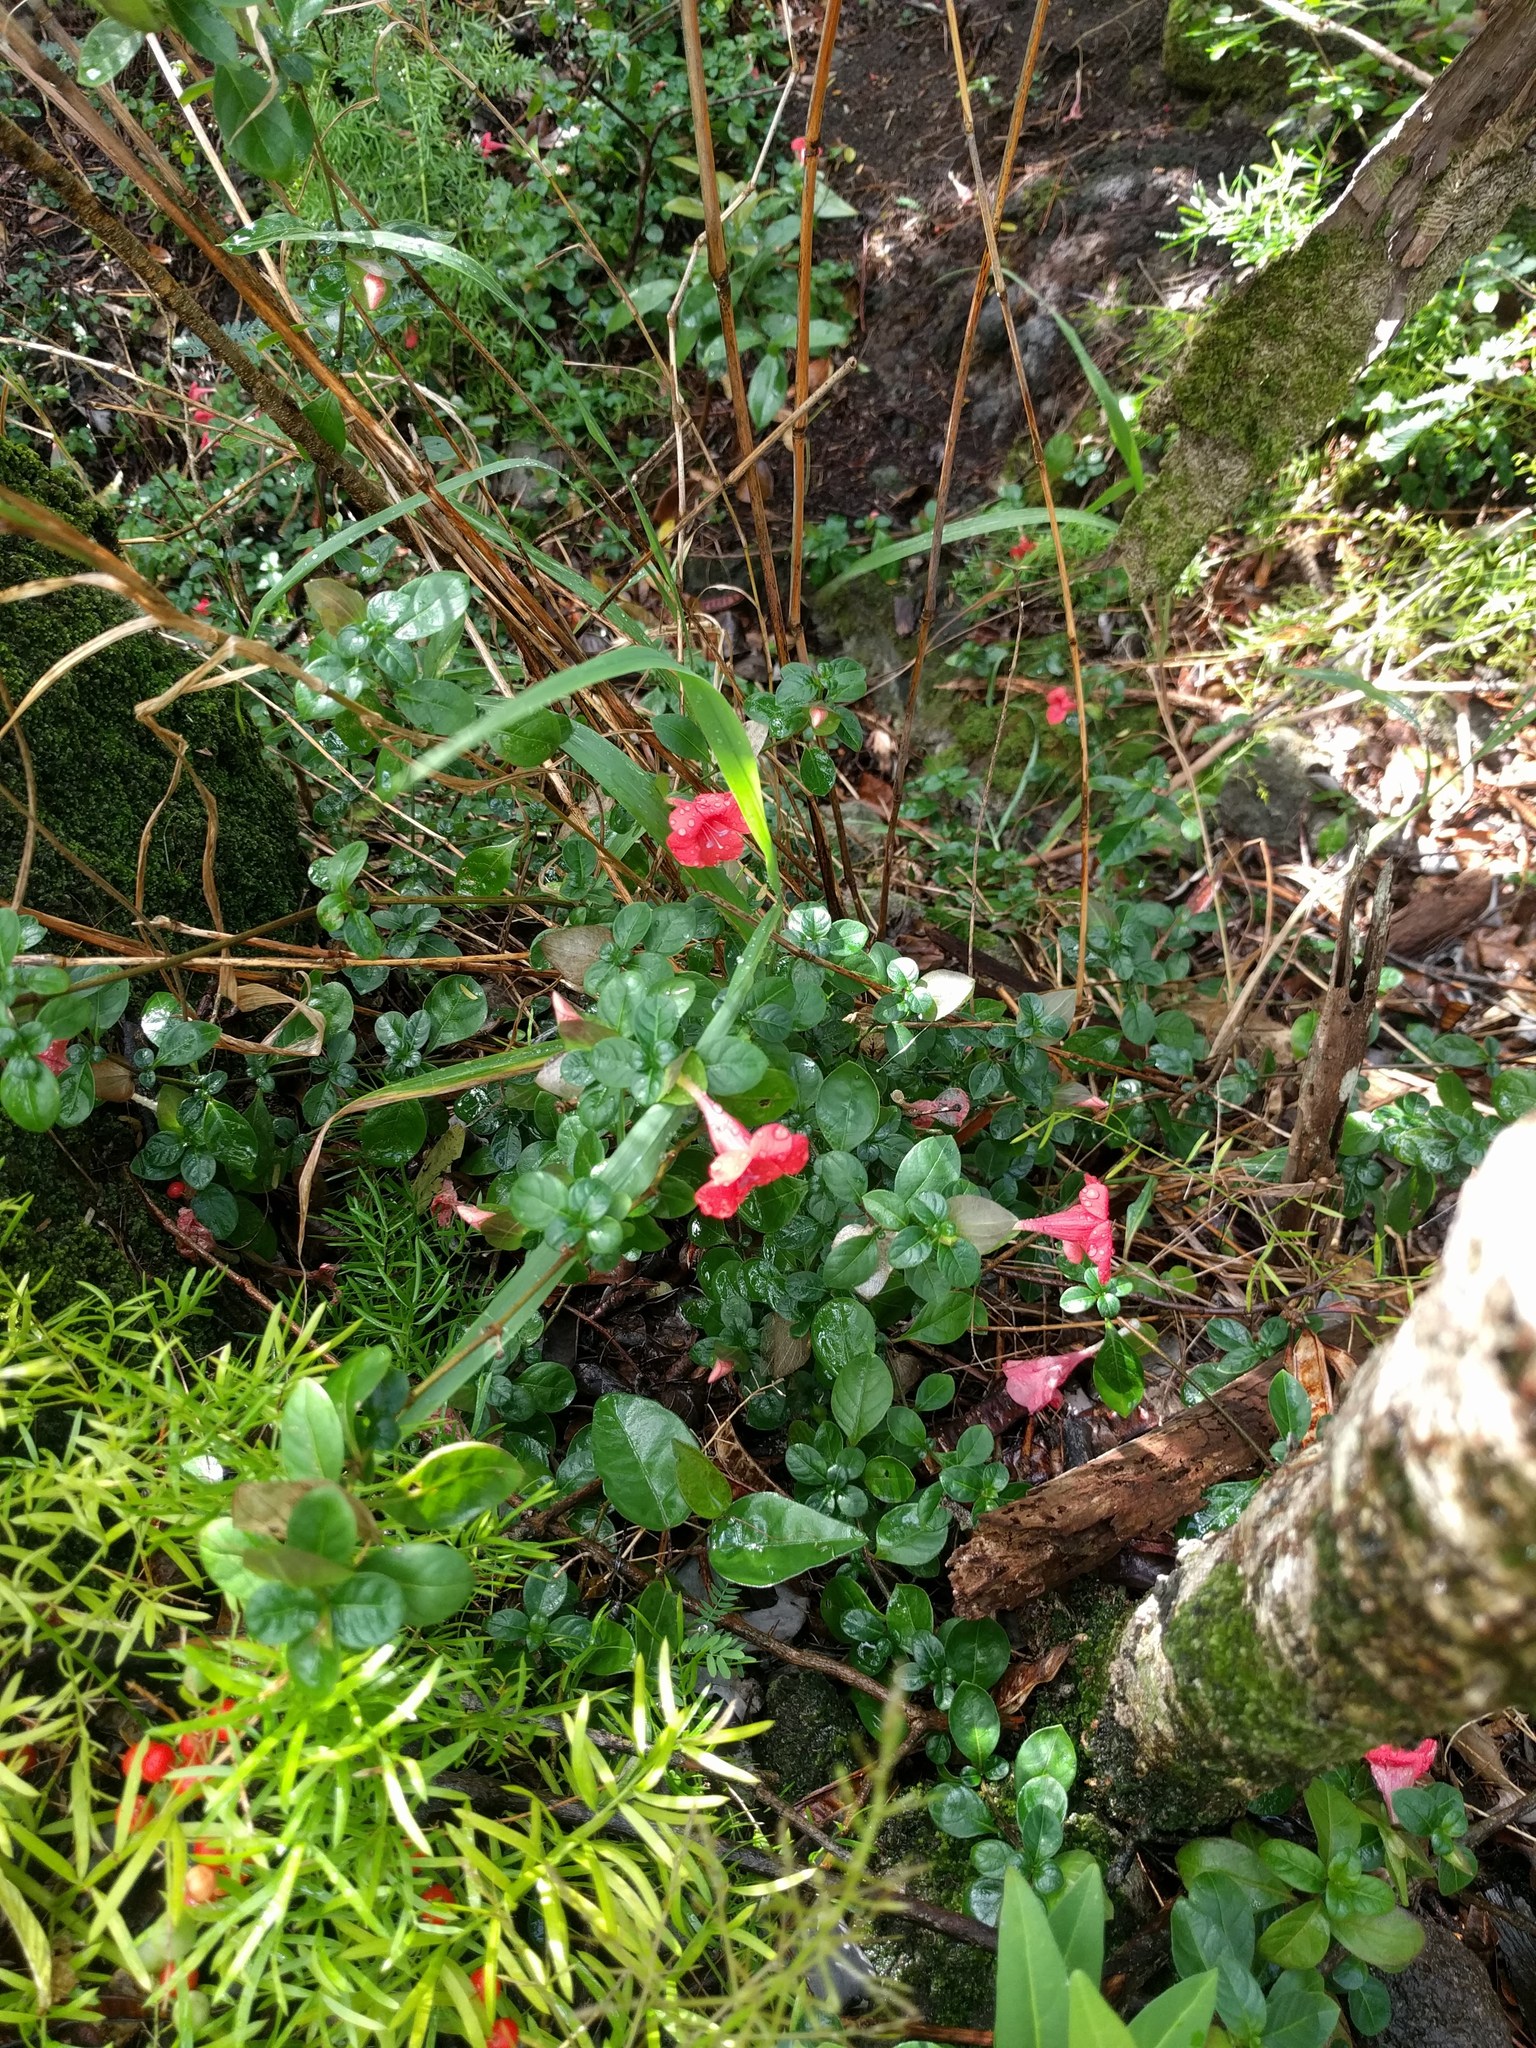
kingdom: Plantae
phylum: Tracheophyta
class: Magnoliopsida
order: Lamiales
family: Acanthaceae
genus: Barleria
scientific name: Barleria repens
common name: Pink-ruellia
